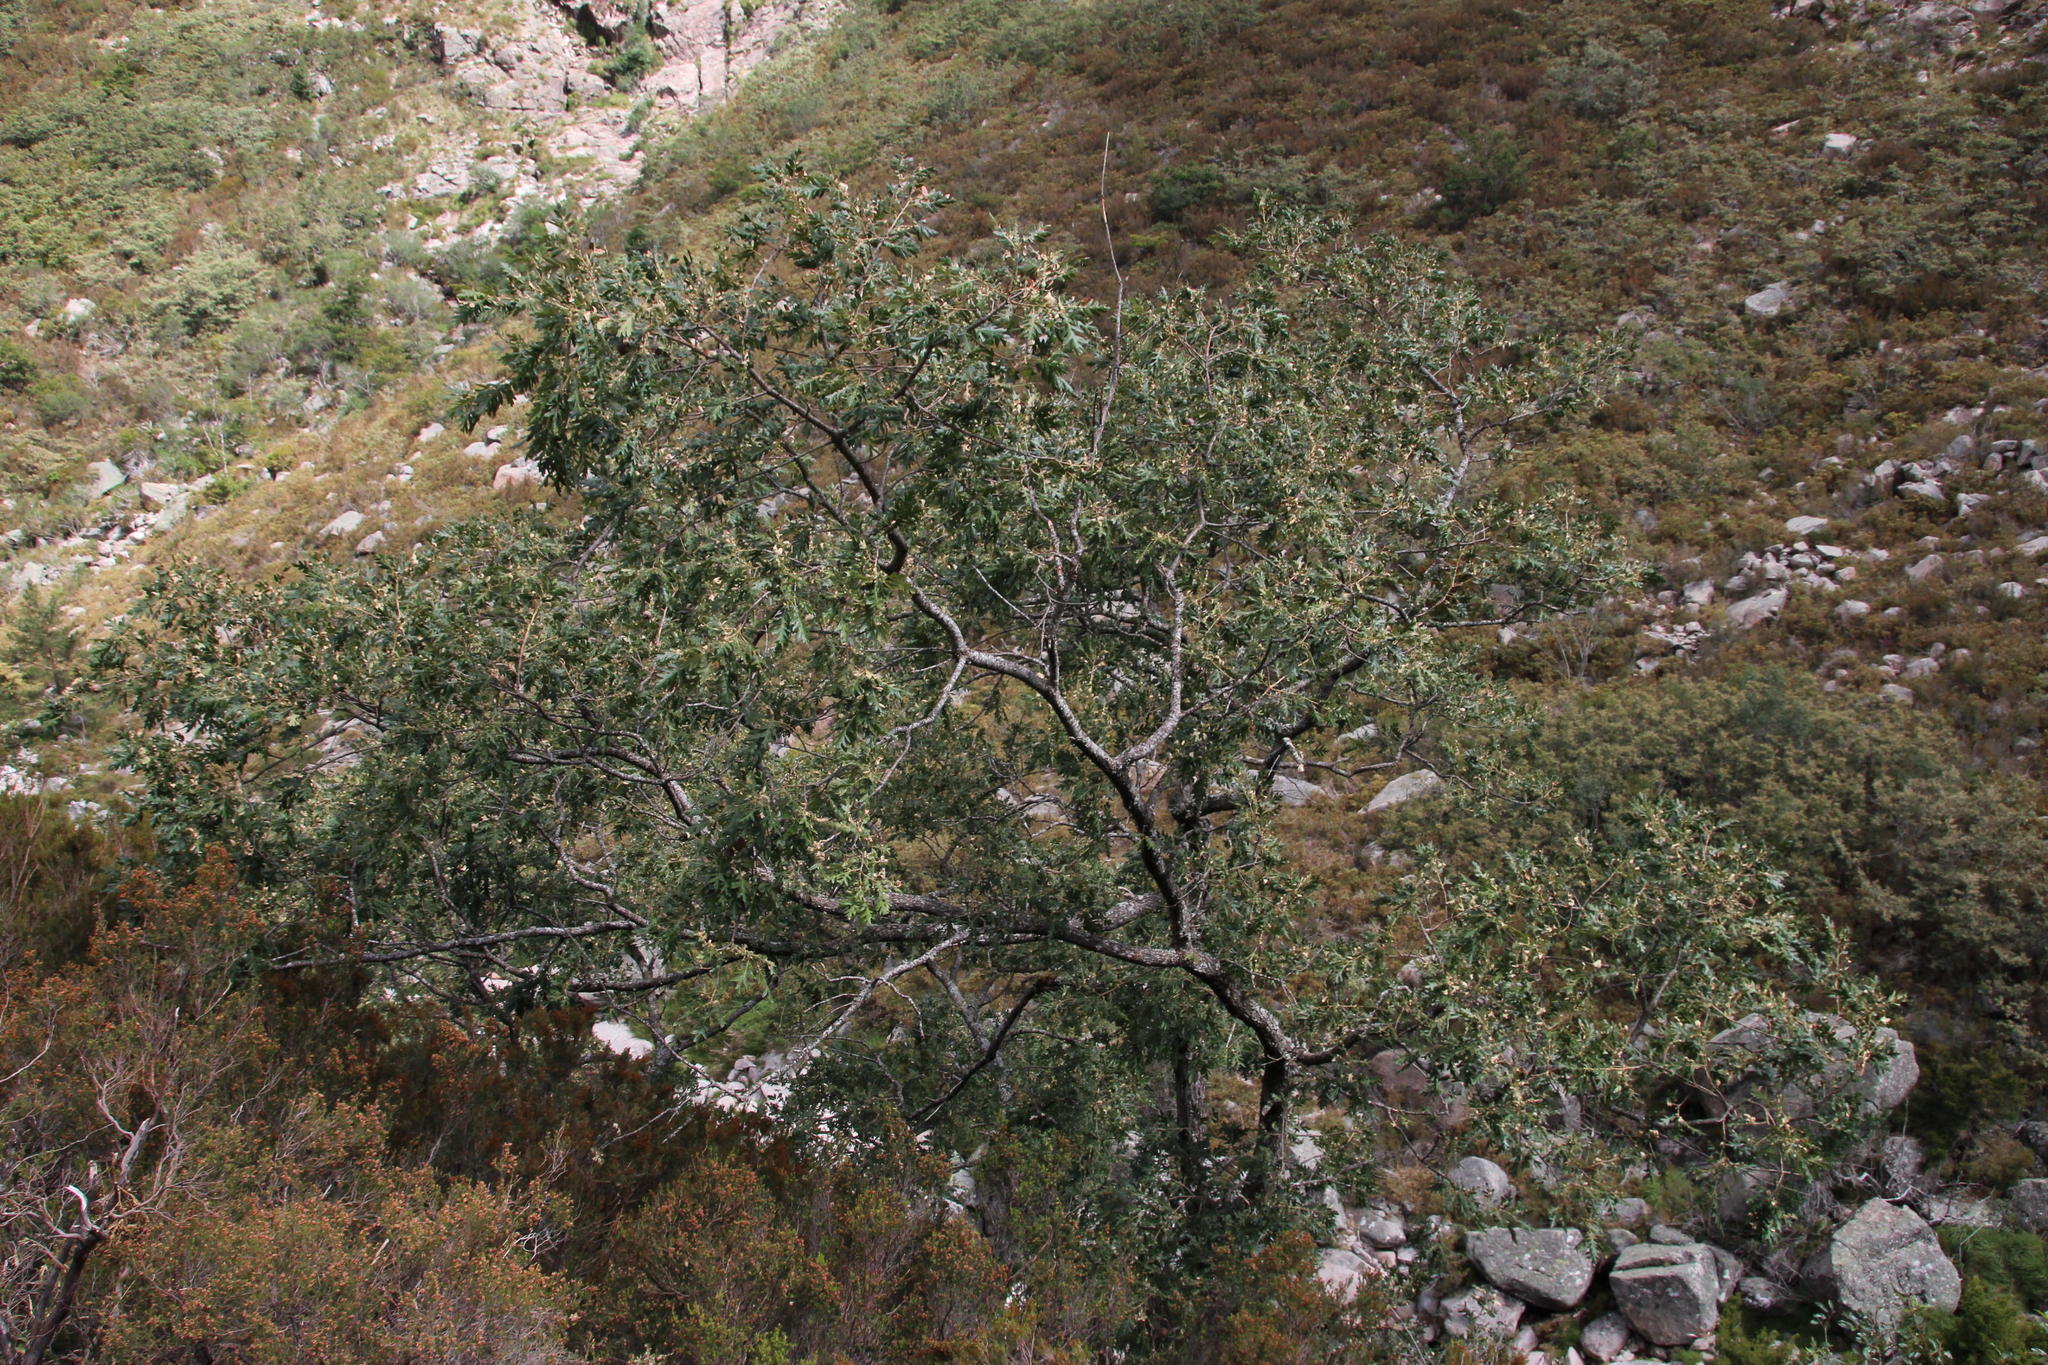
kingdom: Plantae
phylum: Tracheophyta
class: Magnoliopsida
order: Fagales
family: Fagaceae
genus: Quercus
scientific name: Quercus pyrenaica
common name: Pyrenean oak
